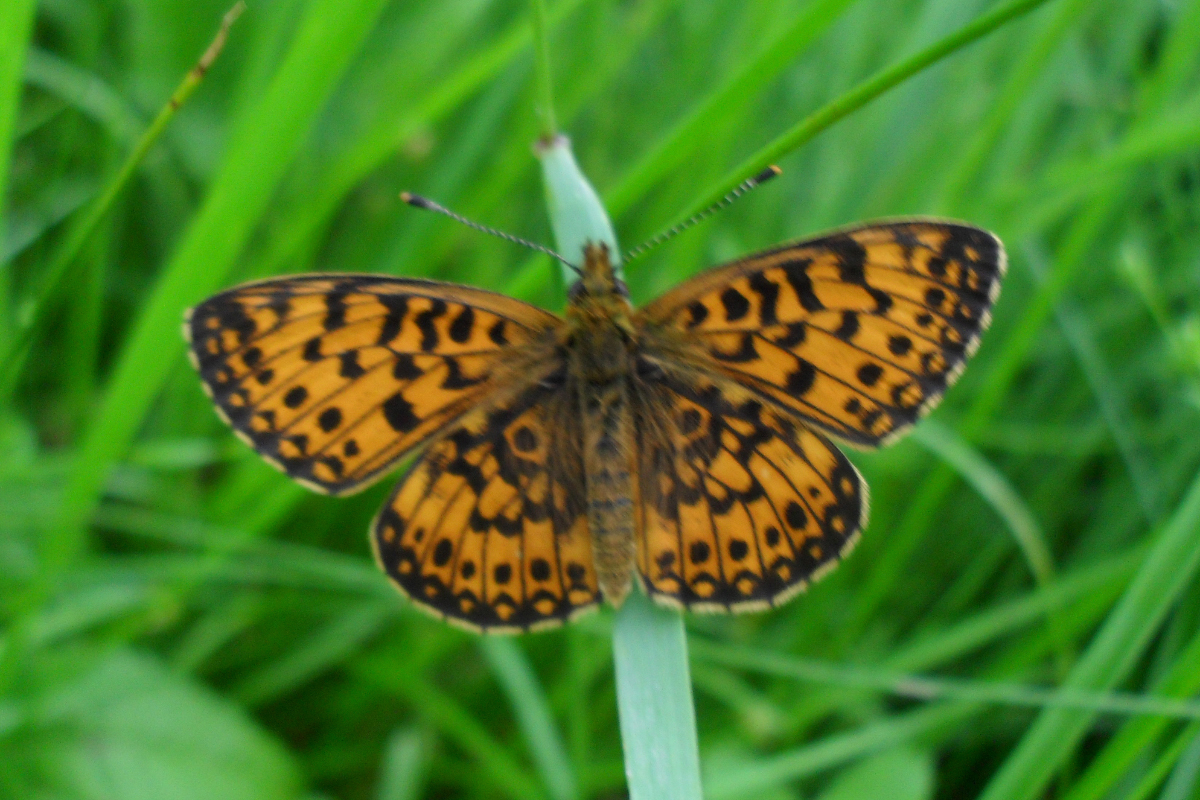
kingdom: Animalia
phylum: Arthropoda
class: Insecta
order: Lepidoptera
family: Nymphalidae
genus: Boloria
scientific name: Boloria selene
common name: Small pearl-bordered fritillary
